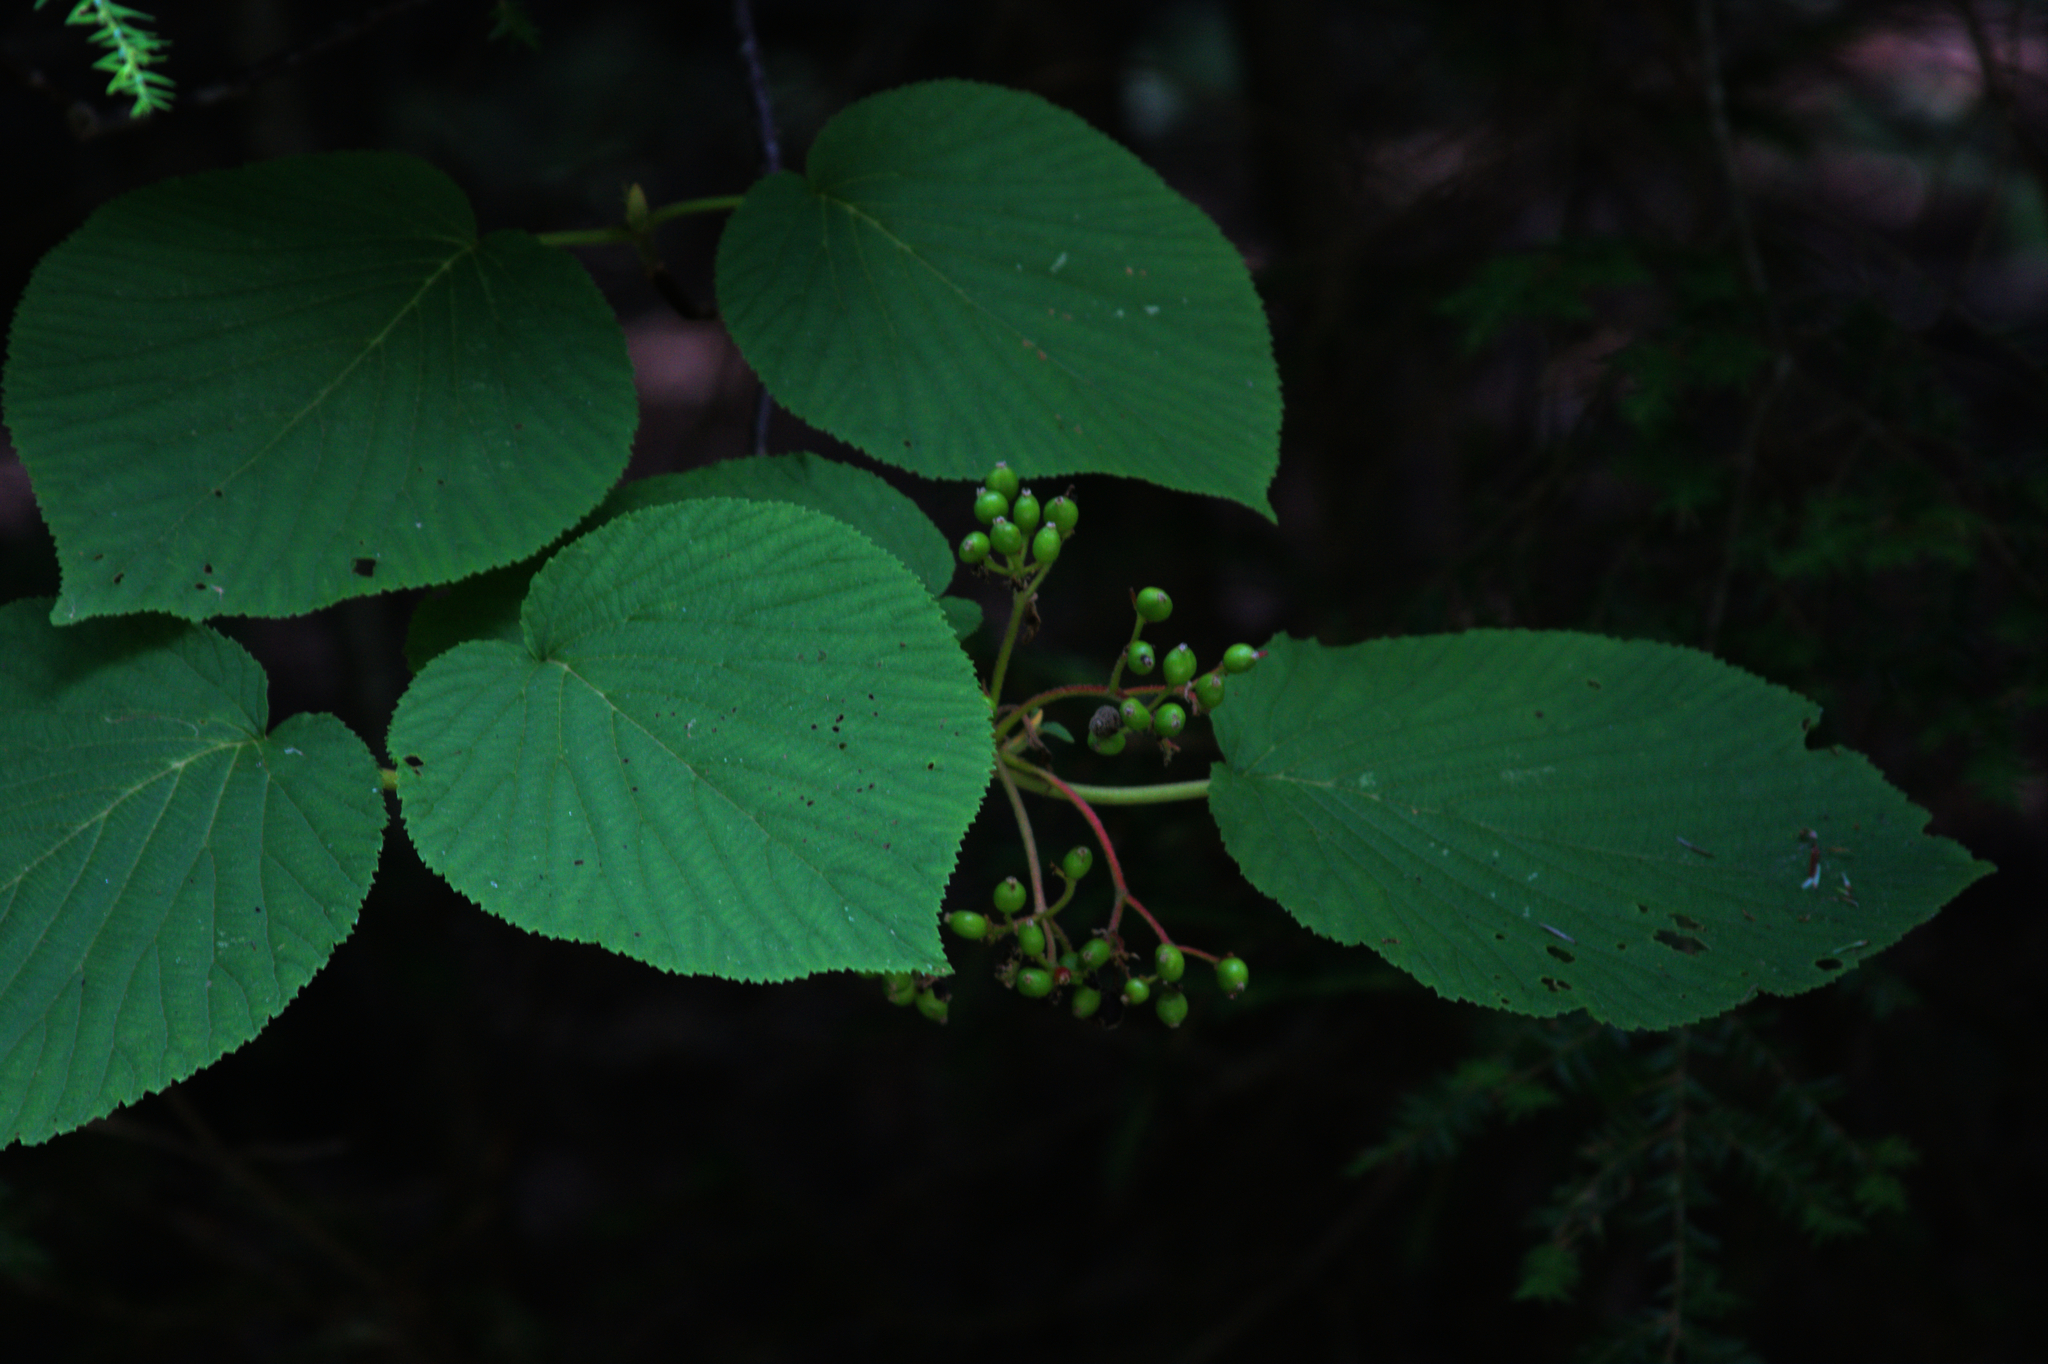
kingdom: Plantae
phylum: Tracheophyta
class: Magnoliopsida
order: Dipsacales
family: Viburnaceae
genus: Viburnum
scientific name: Viburnum lantanoides
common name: Hobblebush
